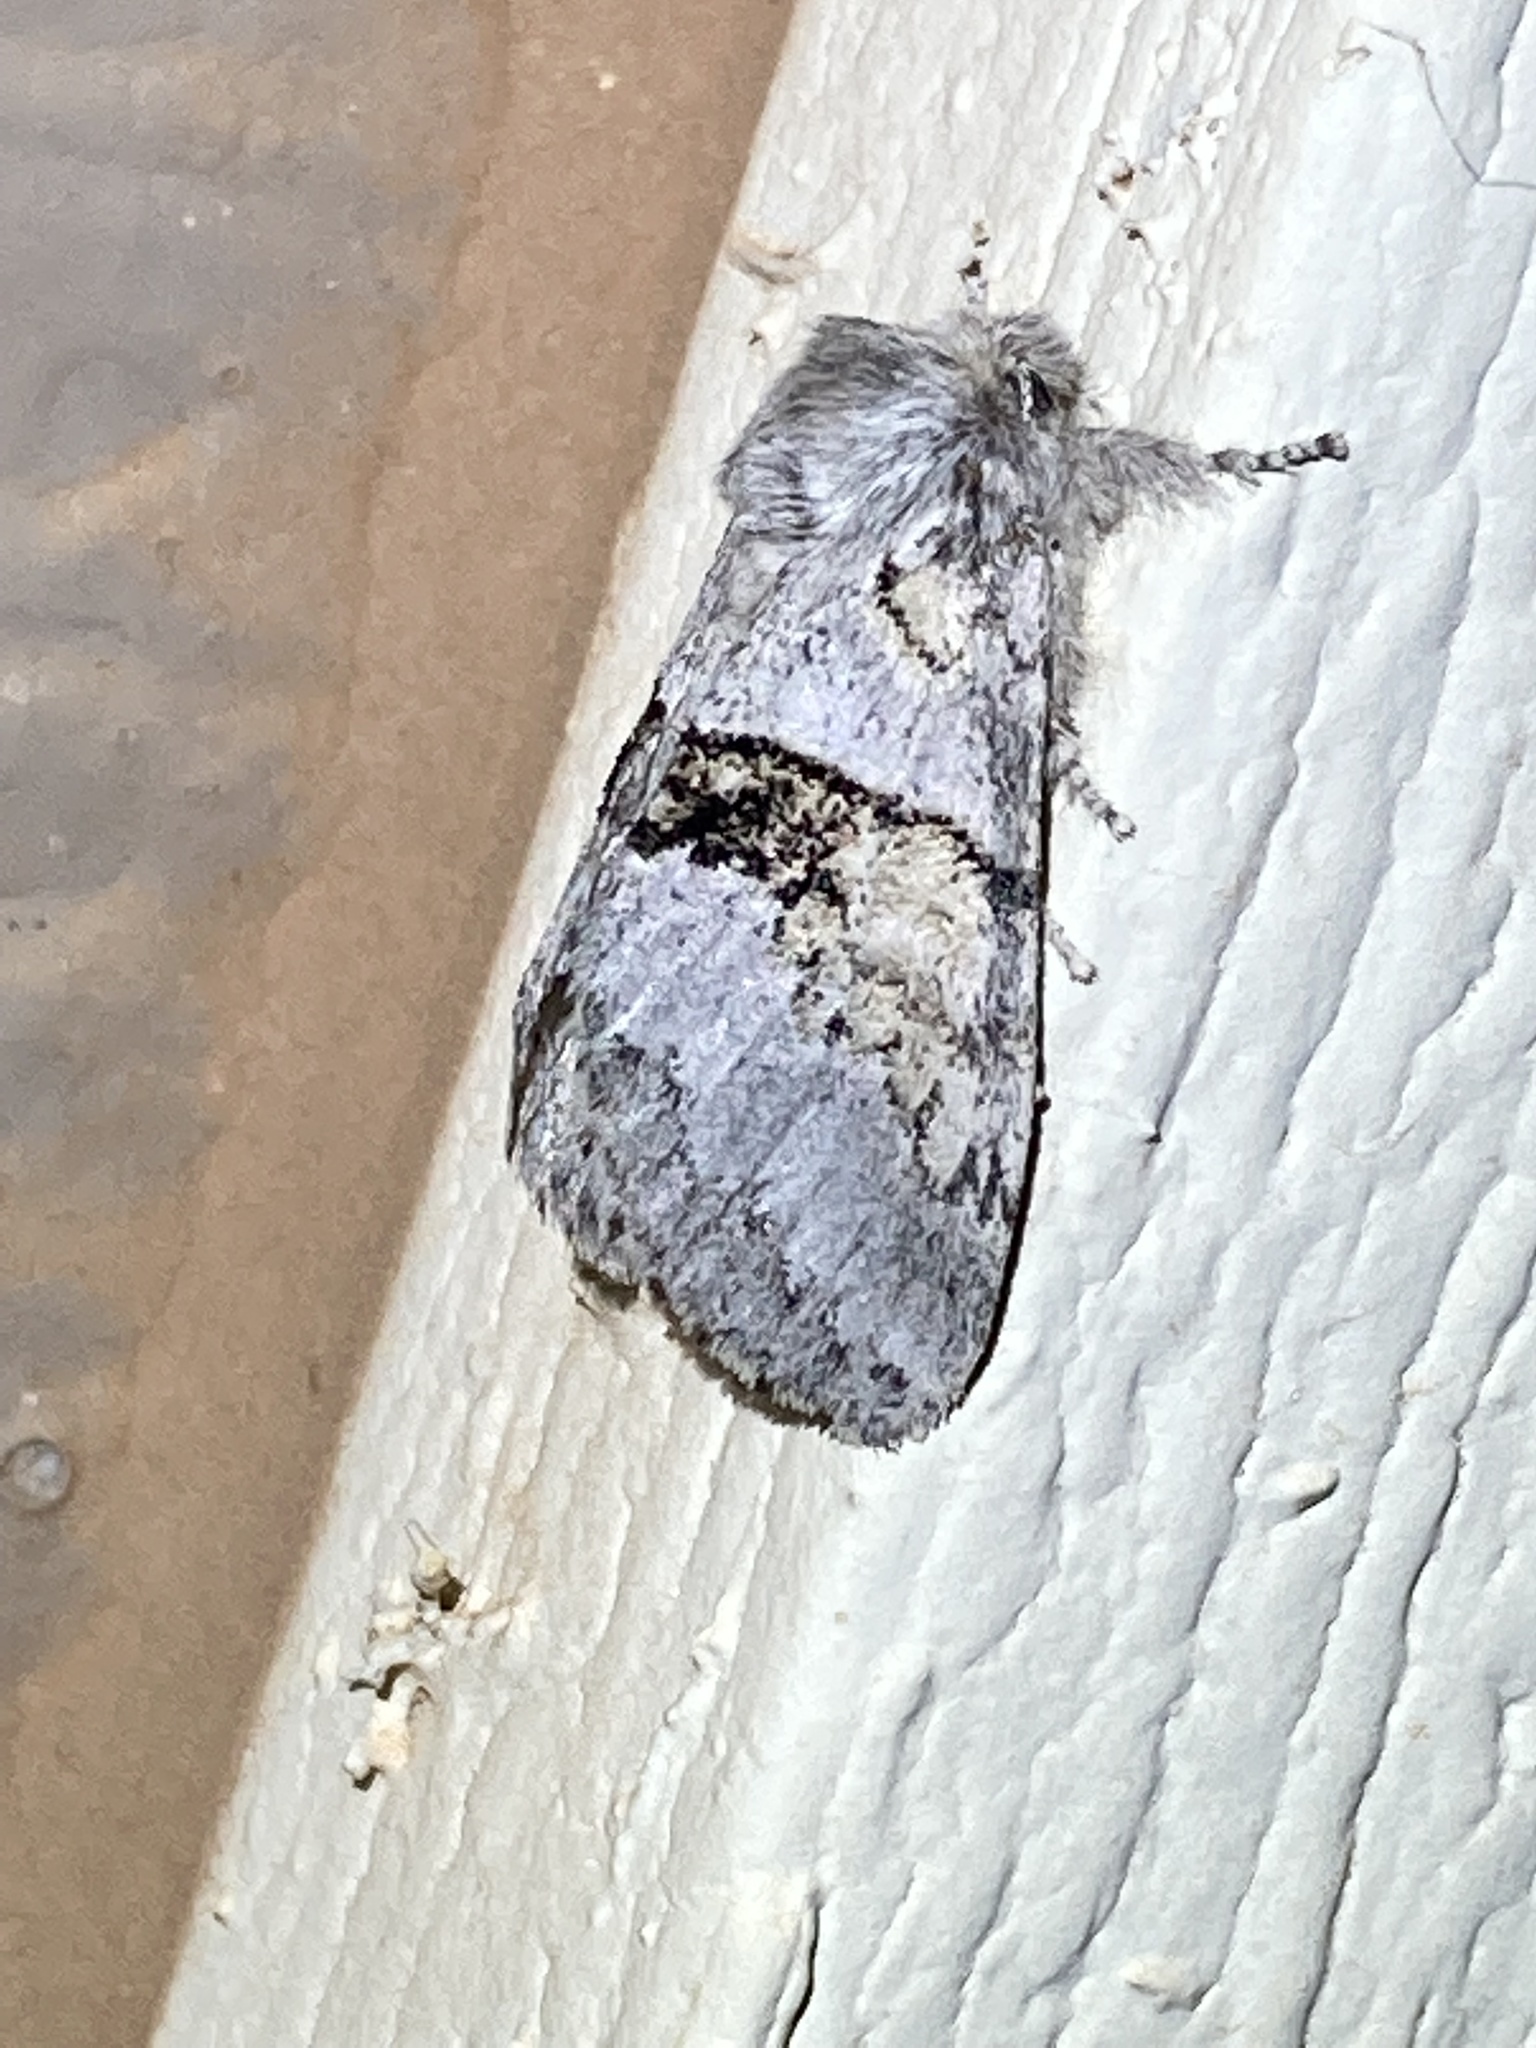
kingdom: Animalia
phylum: Arthropoda
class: Insecta
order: Lepidoptera
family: Notodontidae
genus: Gluphisia
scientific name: Gluphisia septentrionis
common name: Common gluphisia
